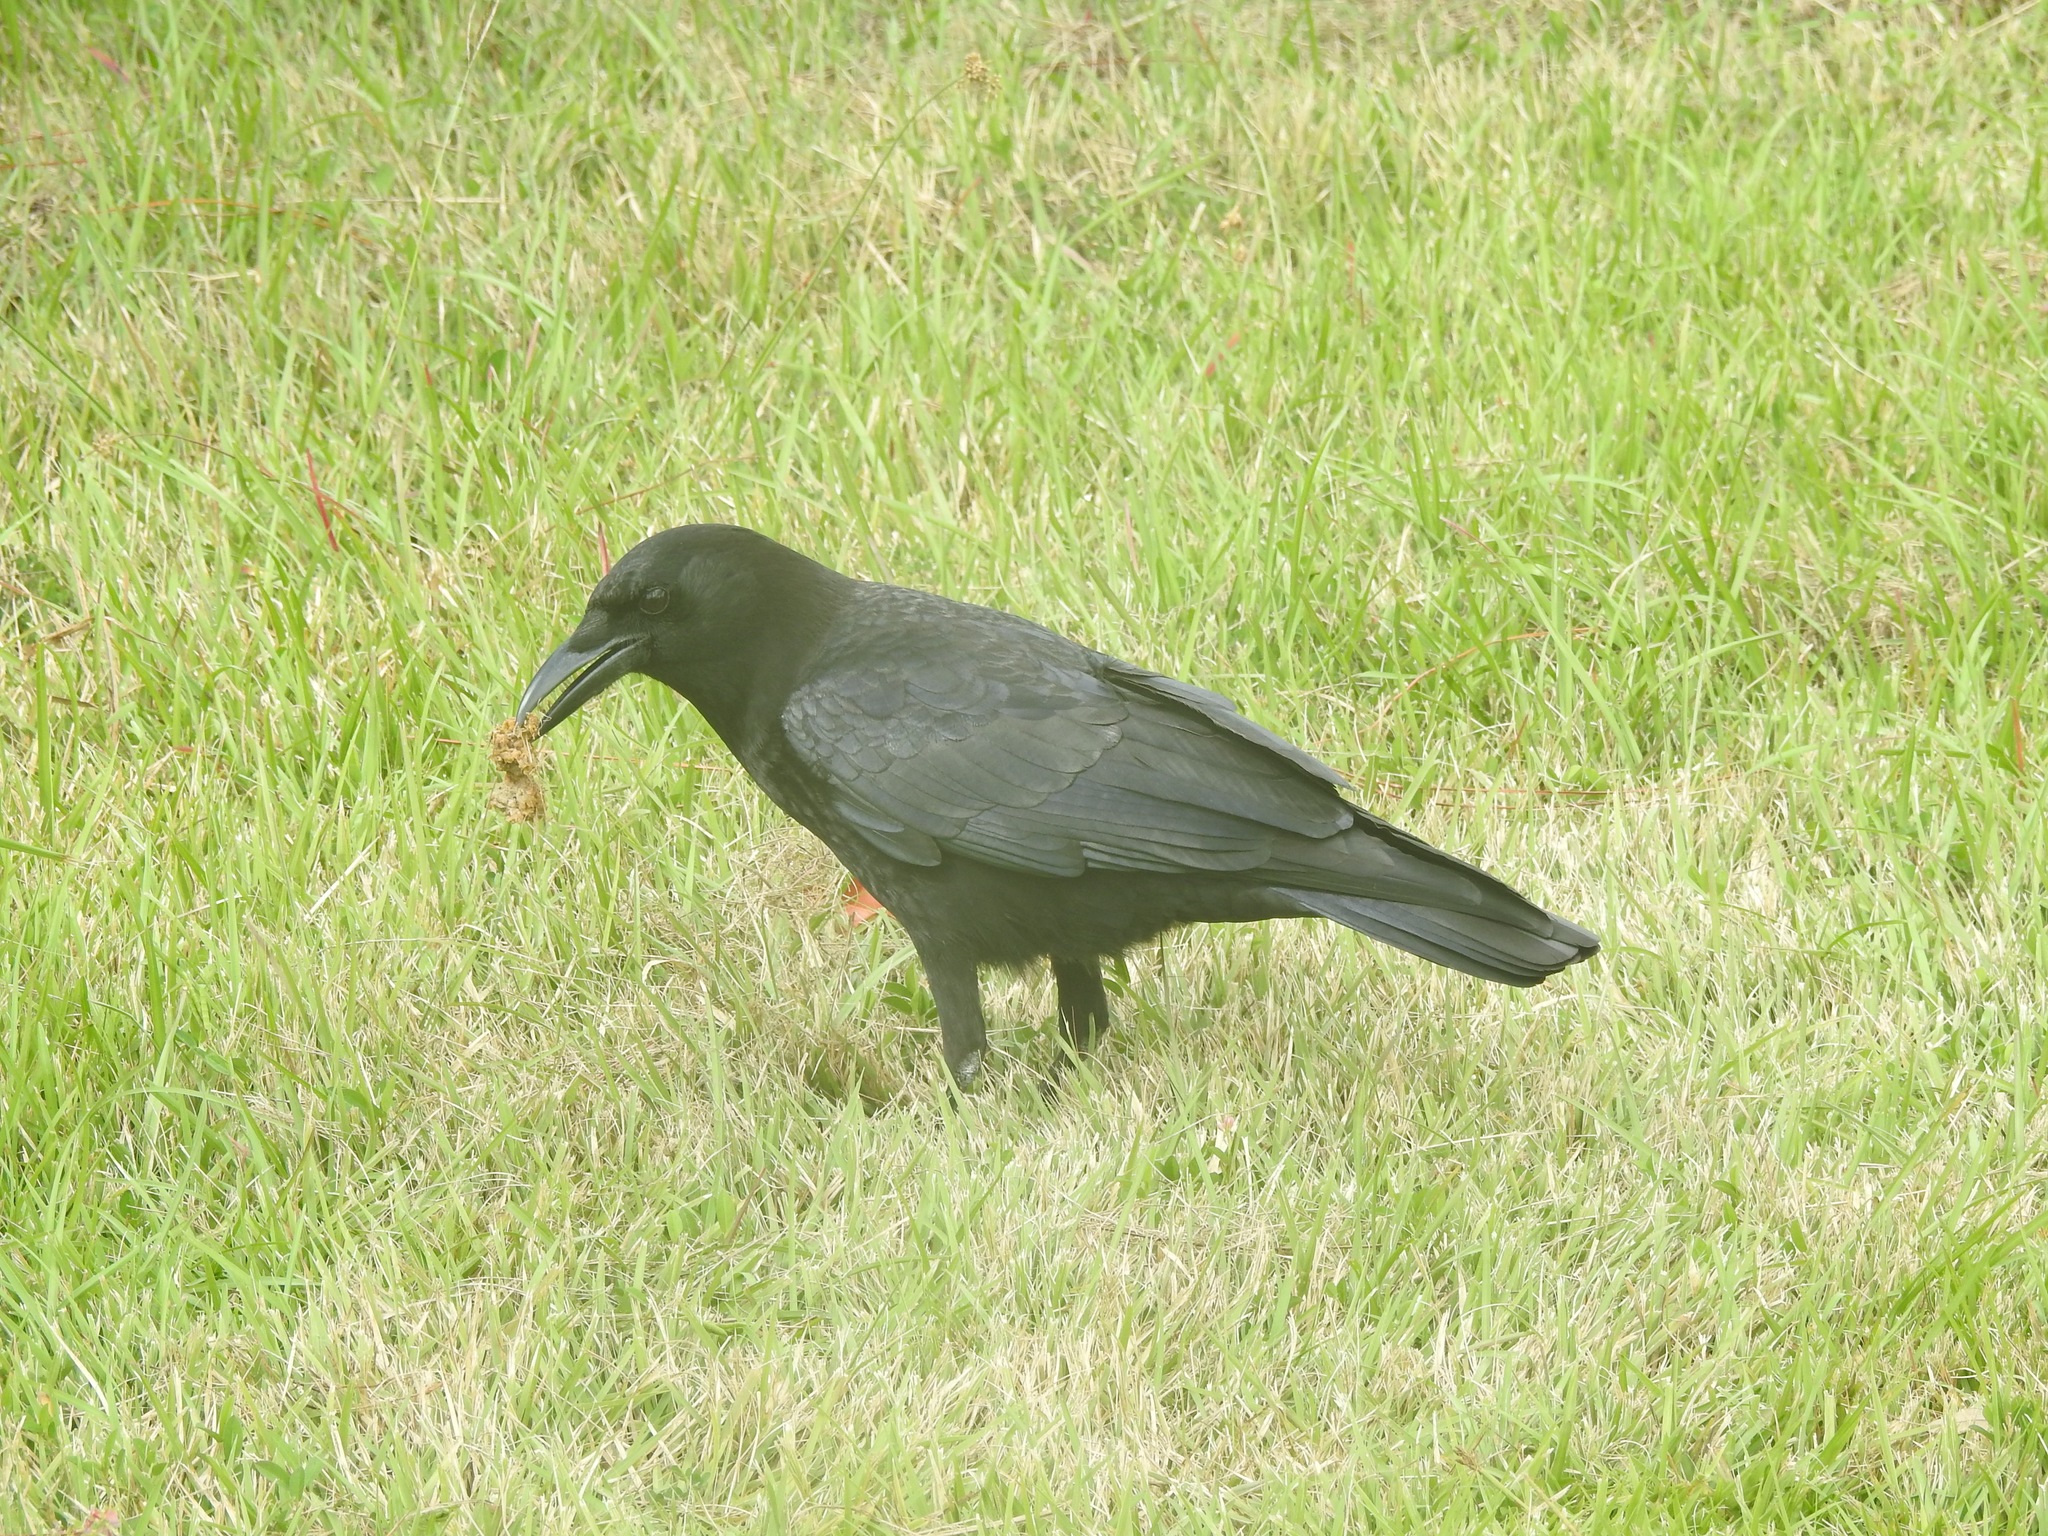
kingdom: Animalia
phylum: Chordata
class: Aves
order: Passeriformes
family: Corvidae
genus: Corvus
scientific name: Corvus brachyrhynchos
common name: American crow
